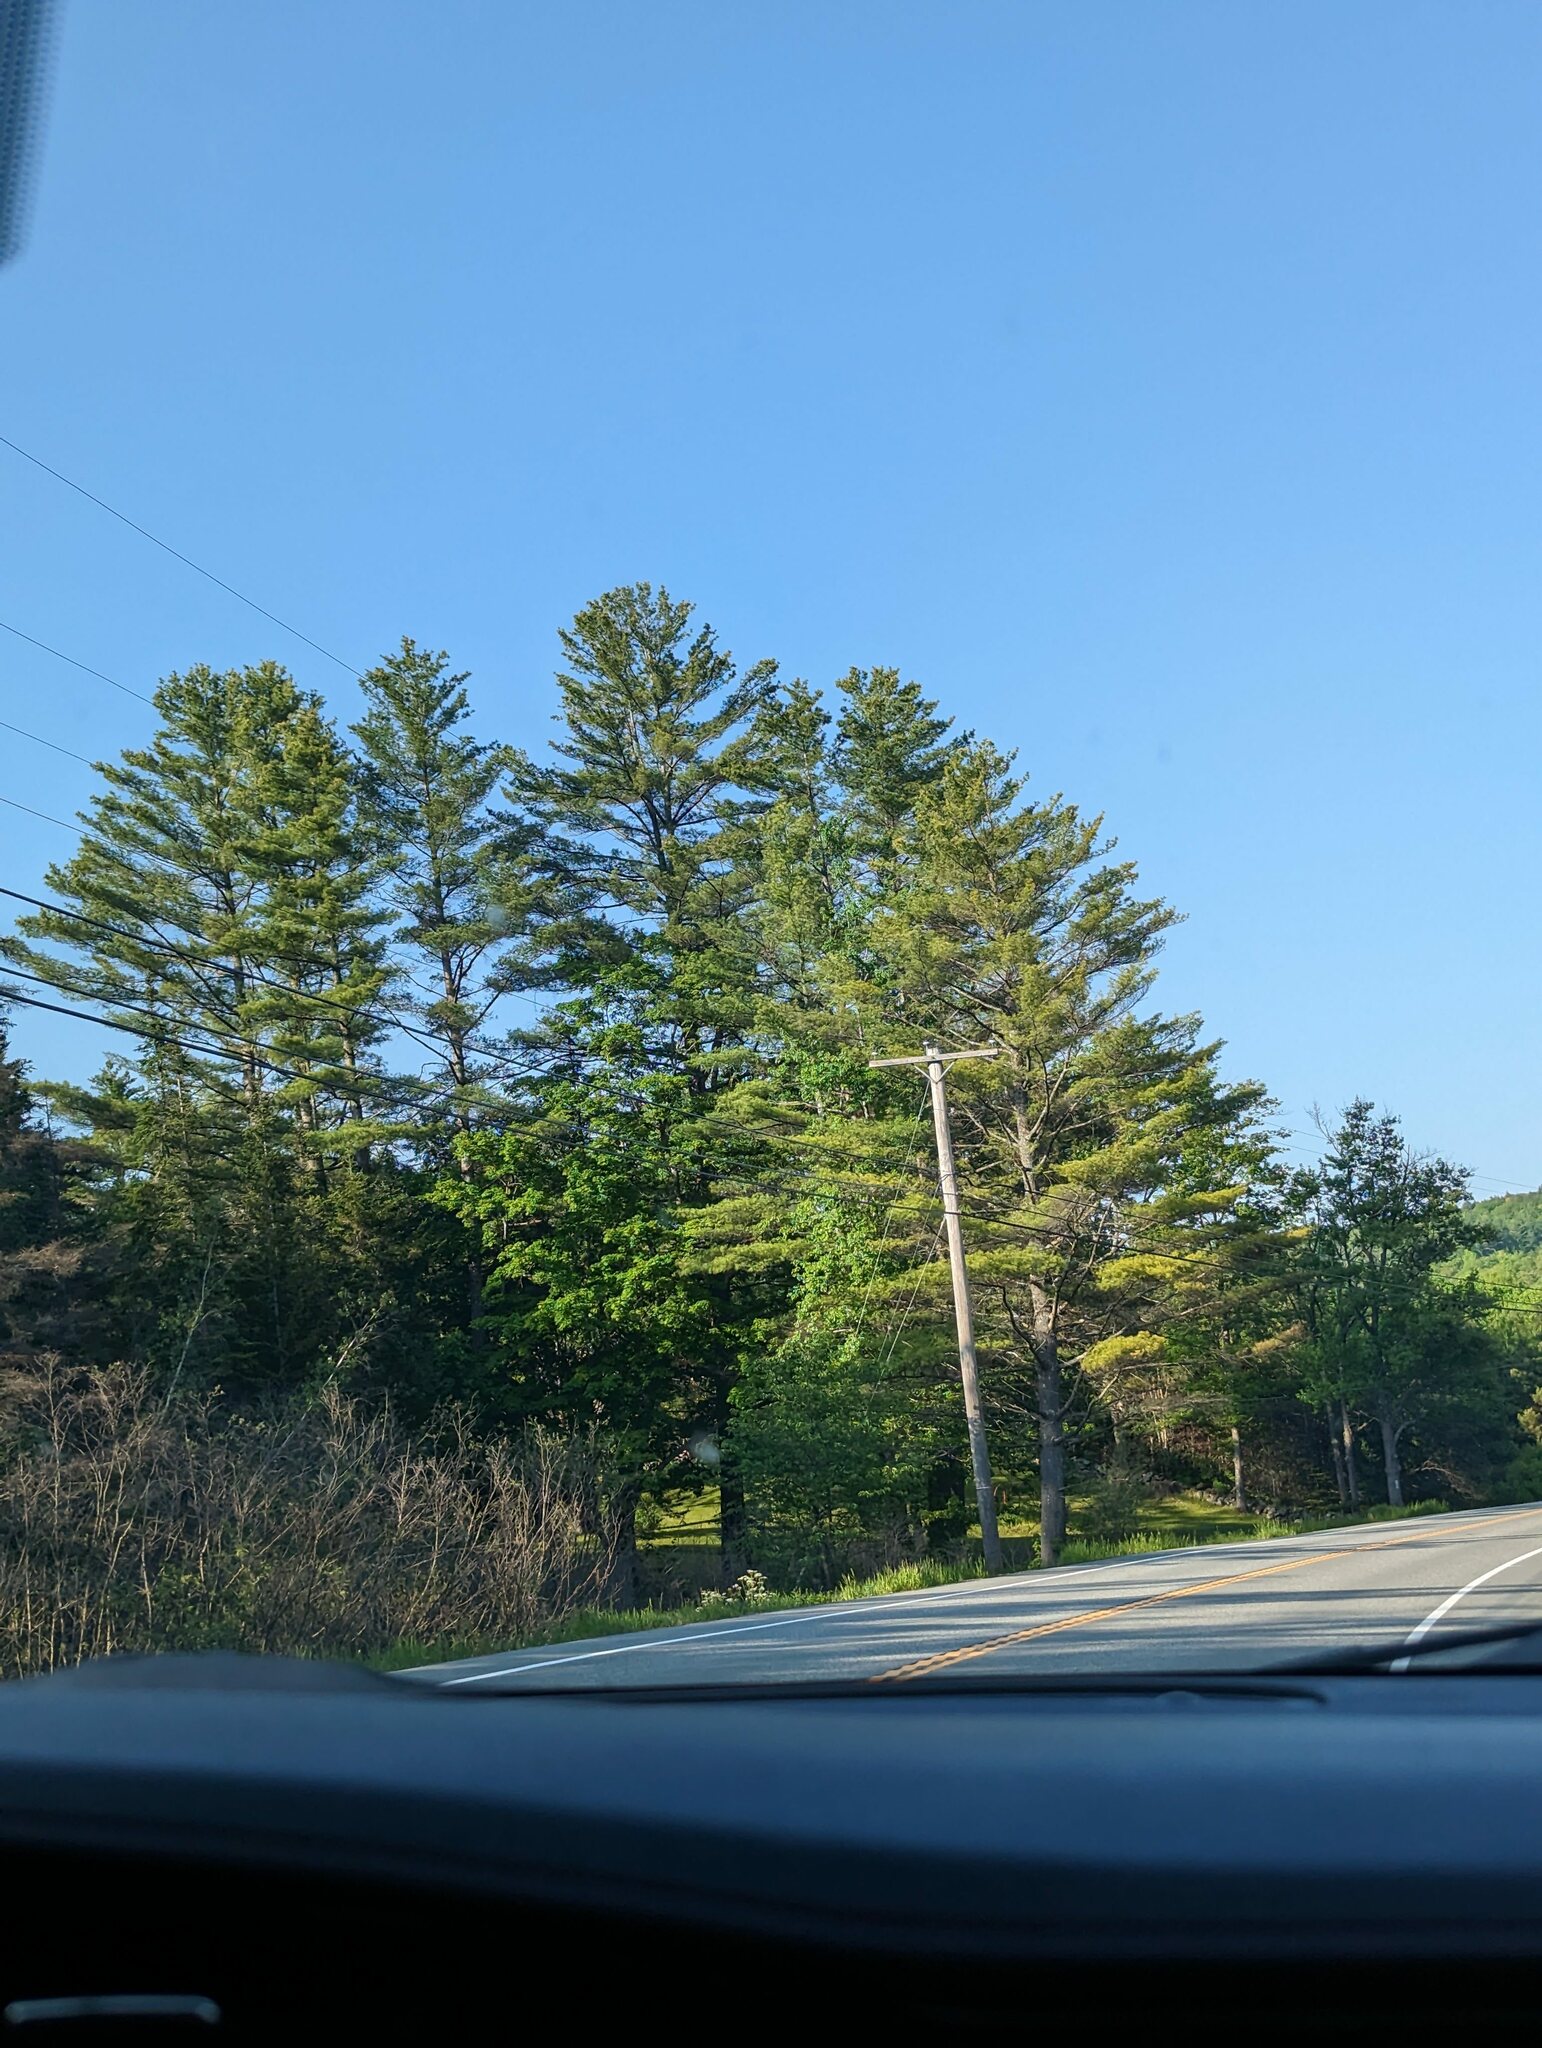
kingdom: Plantae
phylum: Tracheophyta
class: Pinopsida
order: Pinales
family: Pinaceae
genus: Pinus
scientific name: Pinus strobus
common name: Weymouth pine
